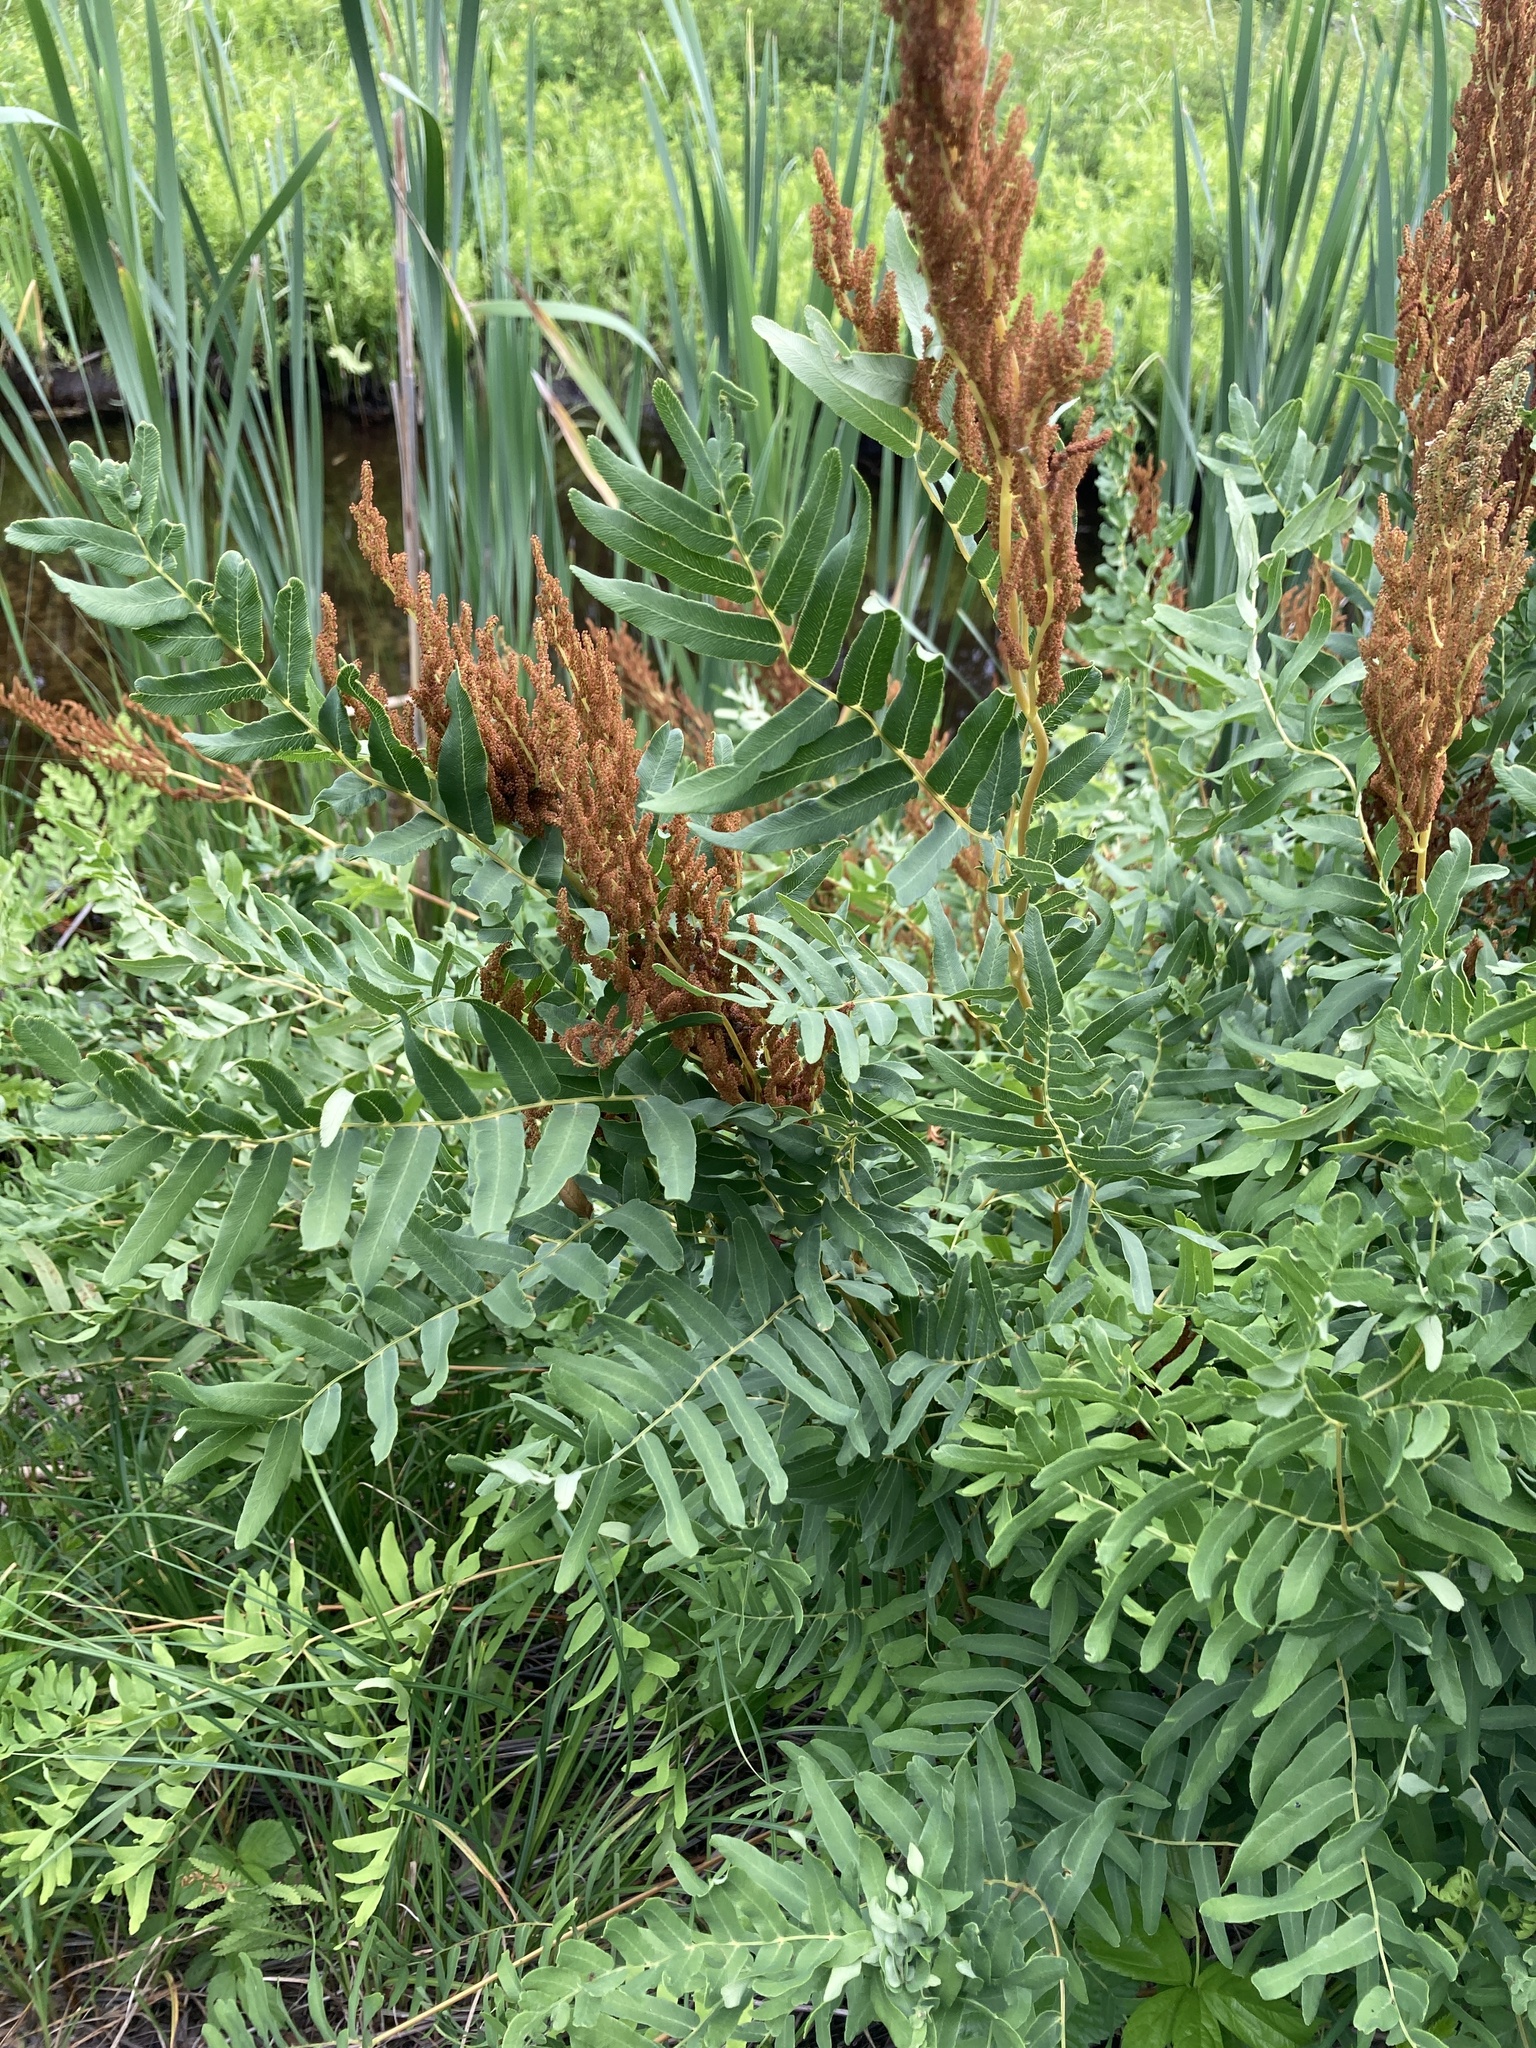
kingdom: Plantae
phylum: Tracheophyta
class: Polypodiopsida
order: Osmundales
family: Osmundaceae
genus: Osmunda
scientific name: Osmunda spectabilis
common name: American royal fern
